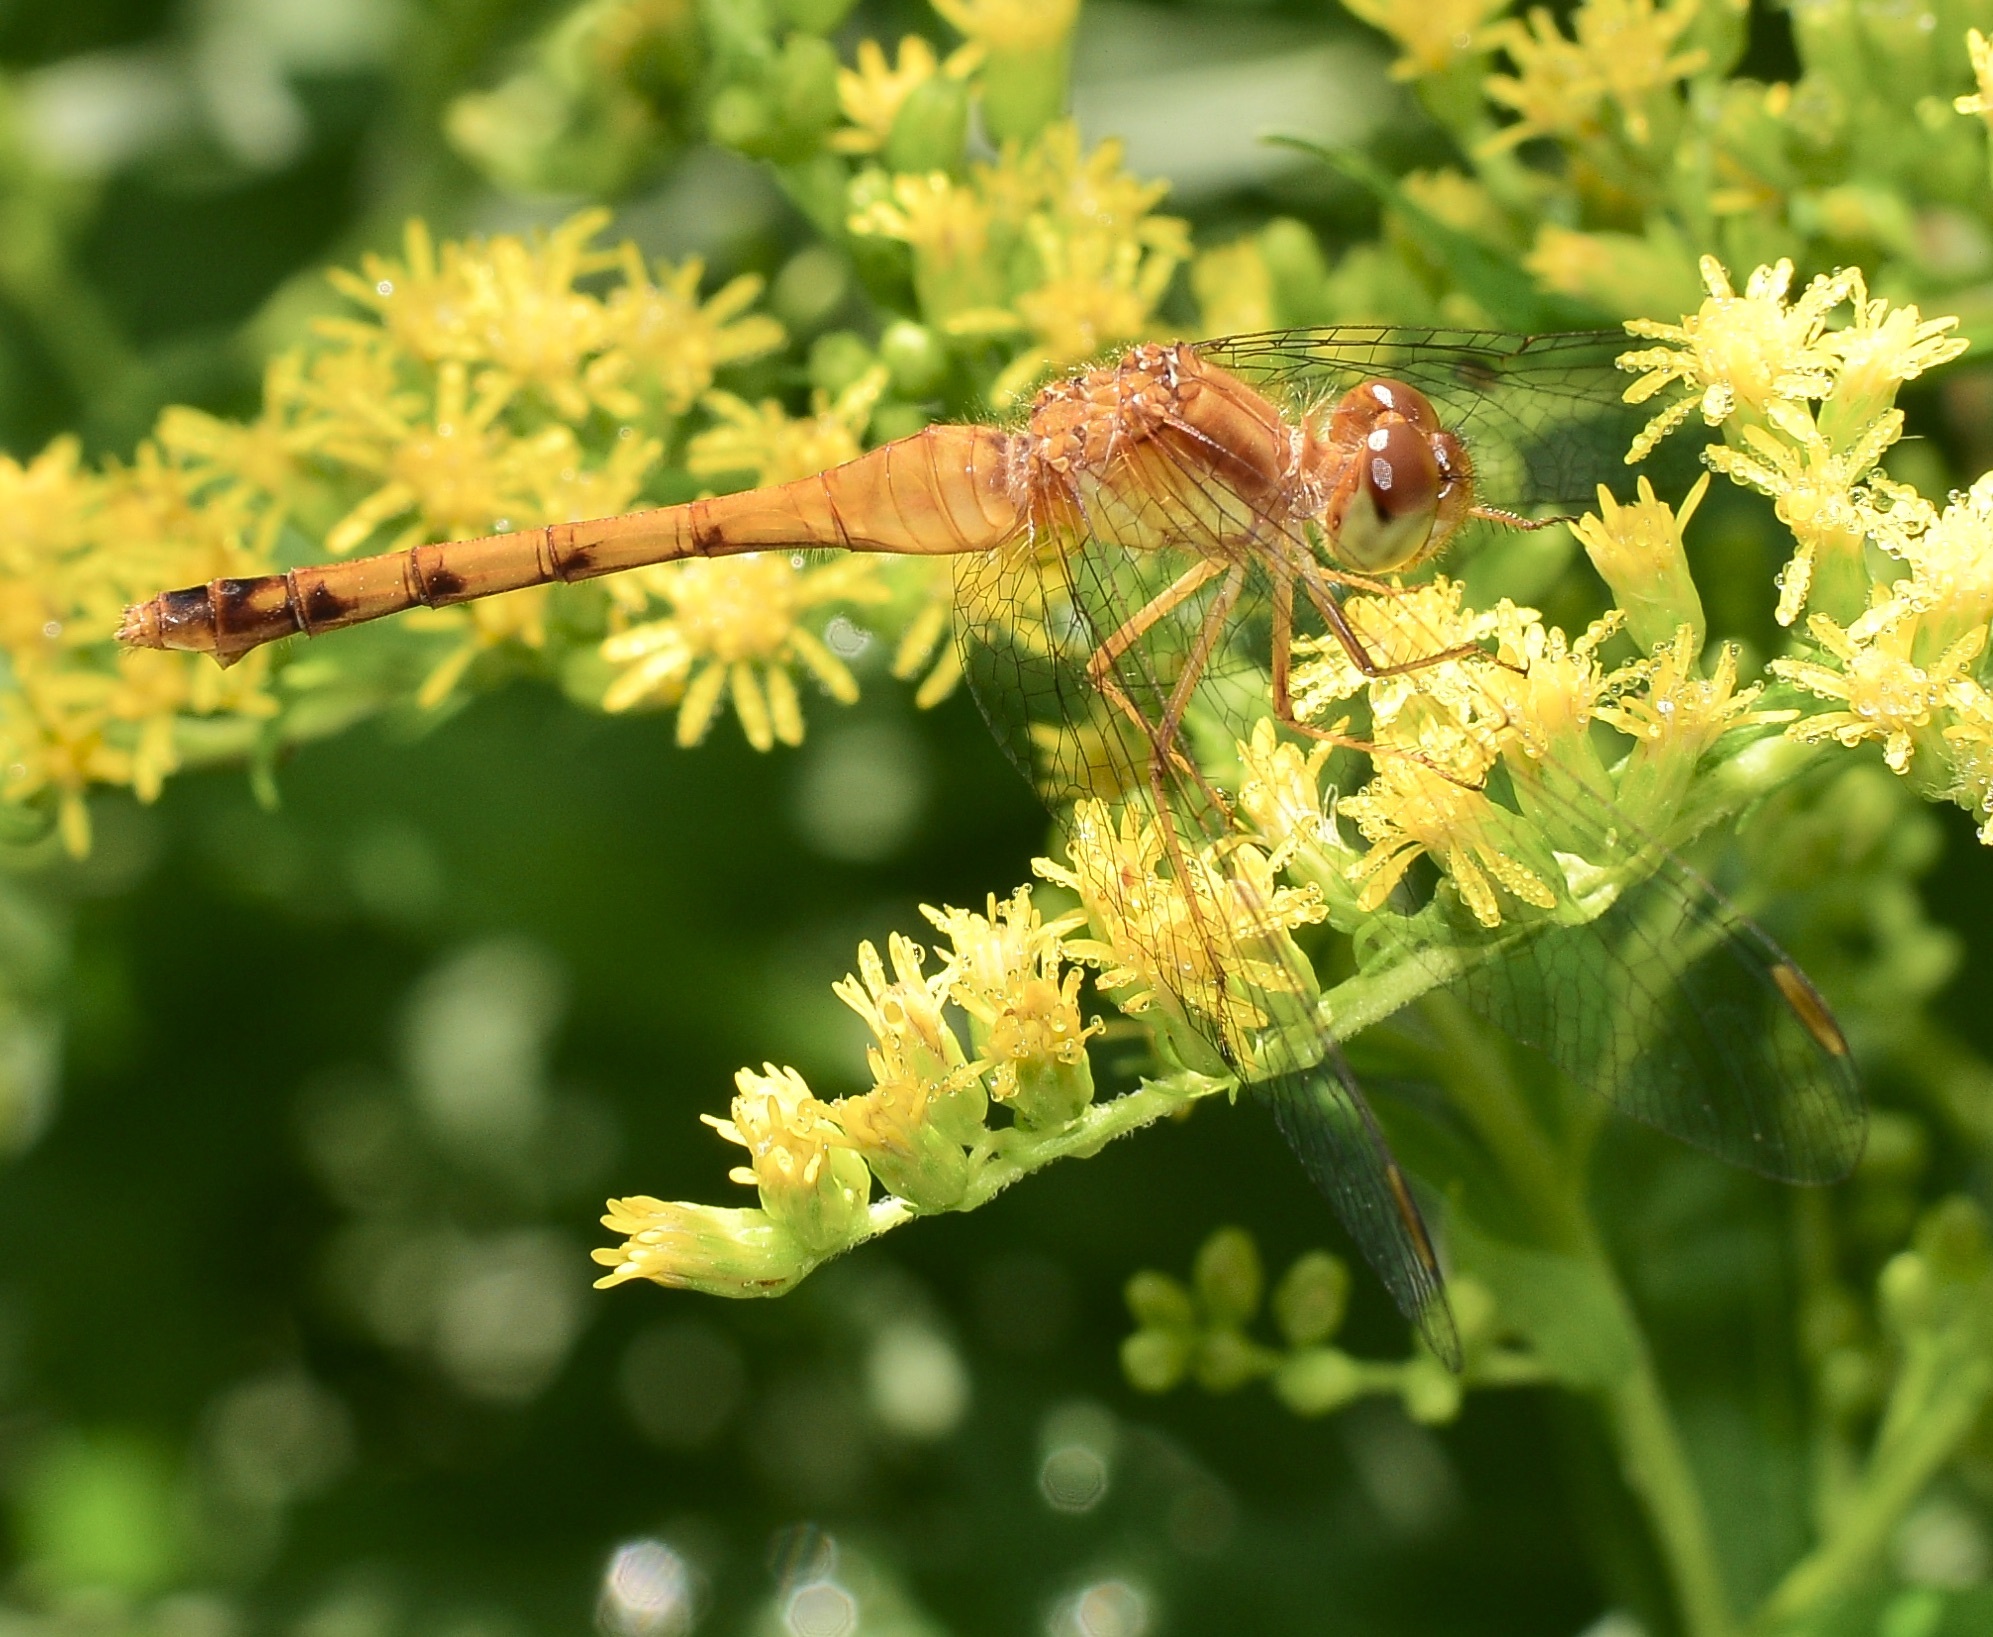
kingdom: Animalia
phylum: Arthropoda
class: Insecta
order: Odonata
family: Libellulidae
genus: Sympetrum
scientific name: Sympetrum vicinum
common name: Autumn meadowhawk
